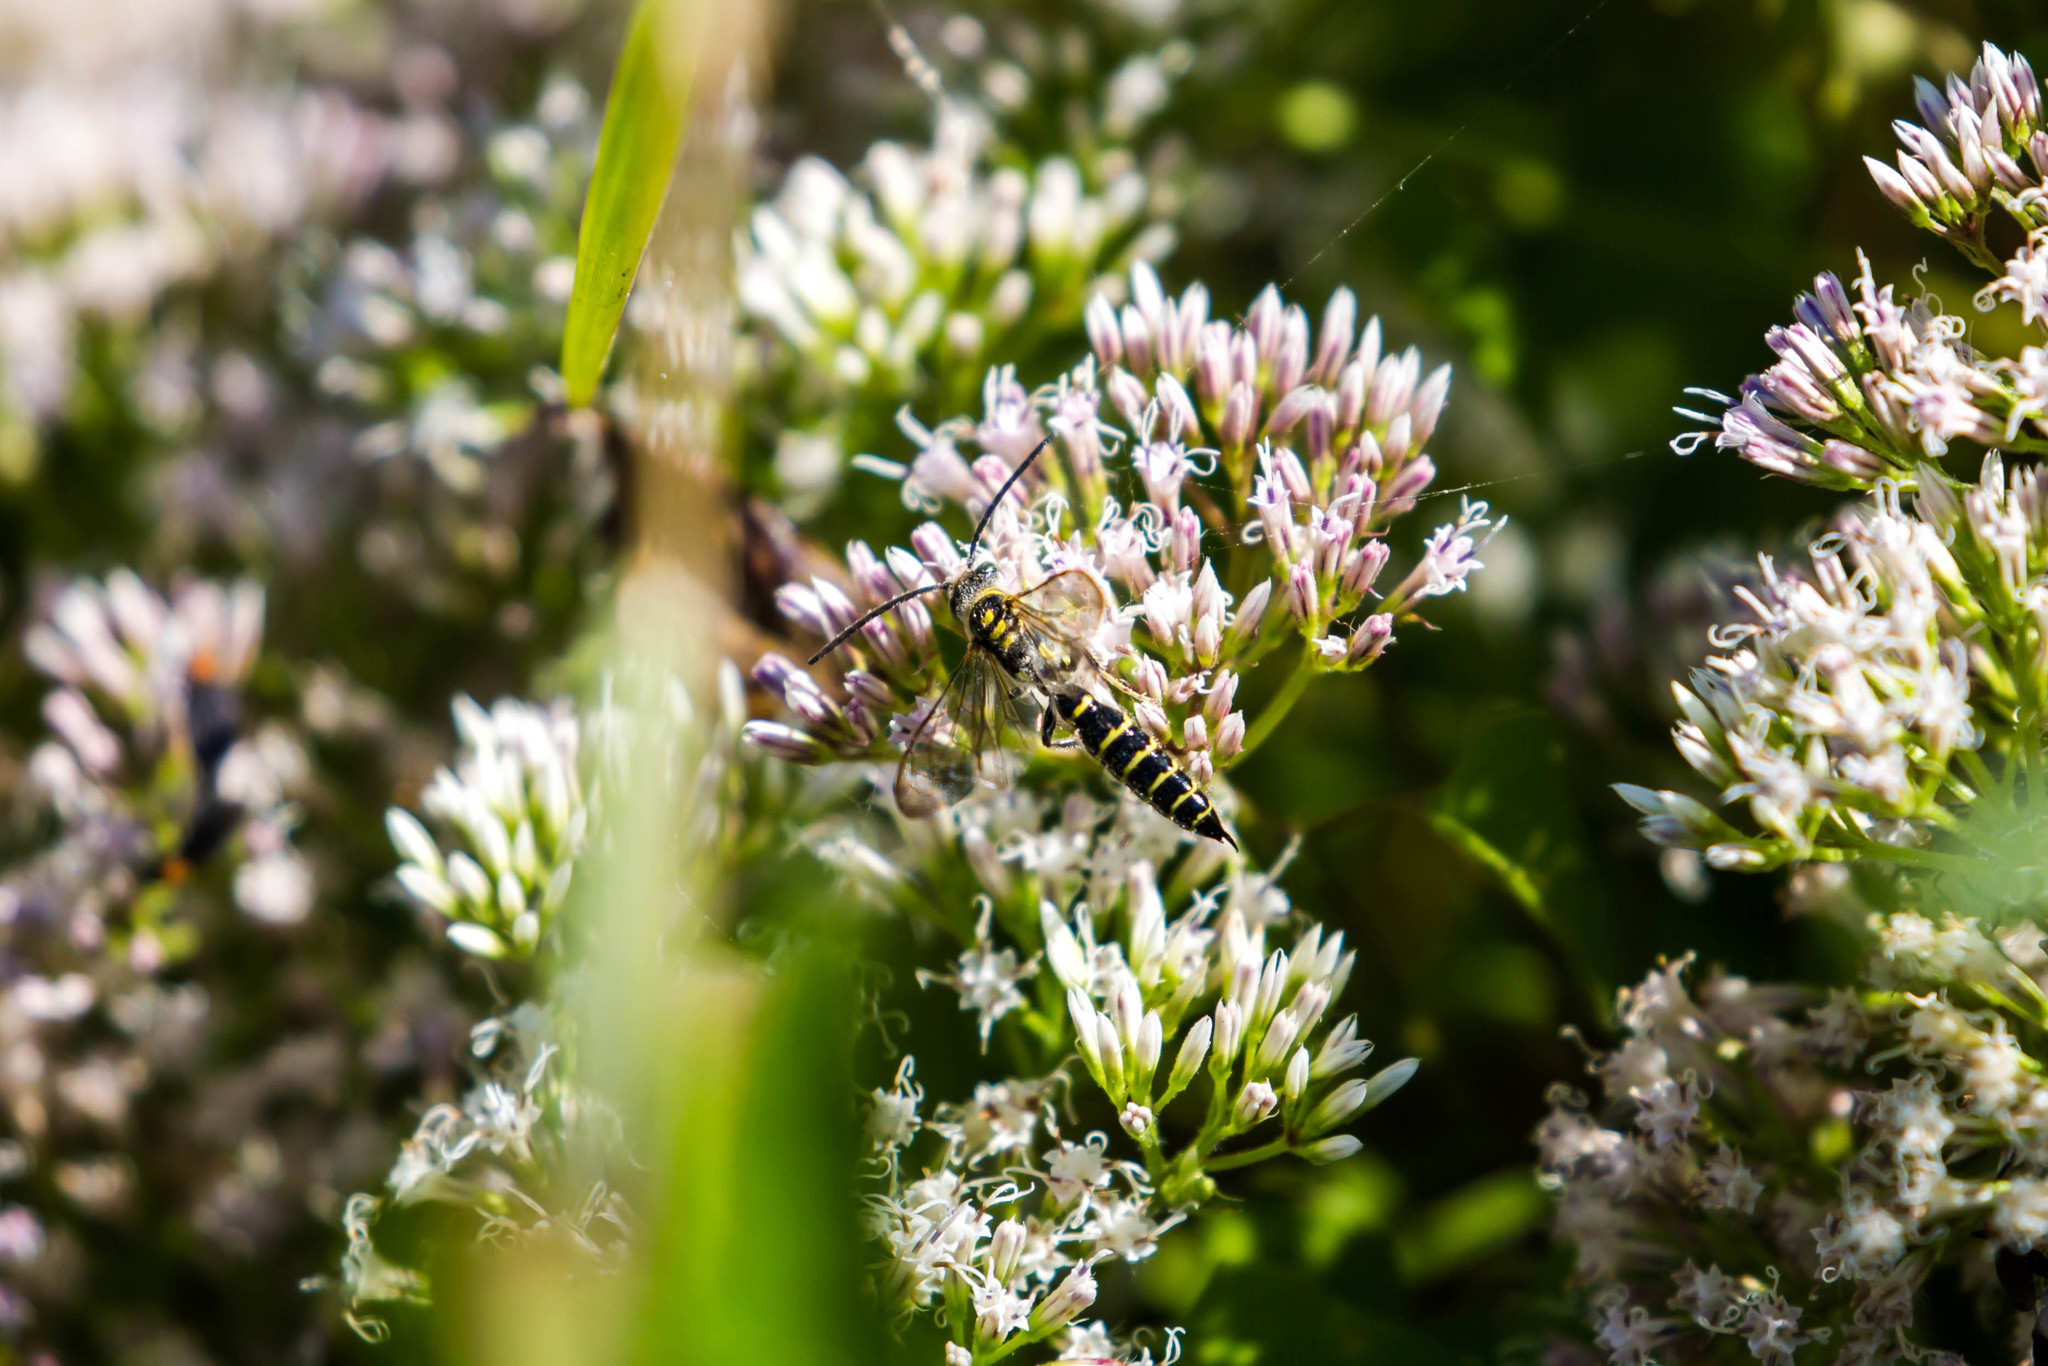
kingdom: Animalia
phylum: Arthropoda
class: Insecta
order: Hymenoptera
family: Tiphiidae
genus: Myzinum
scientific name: Myzinum
